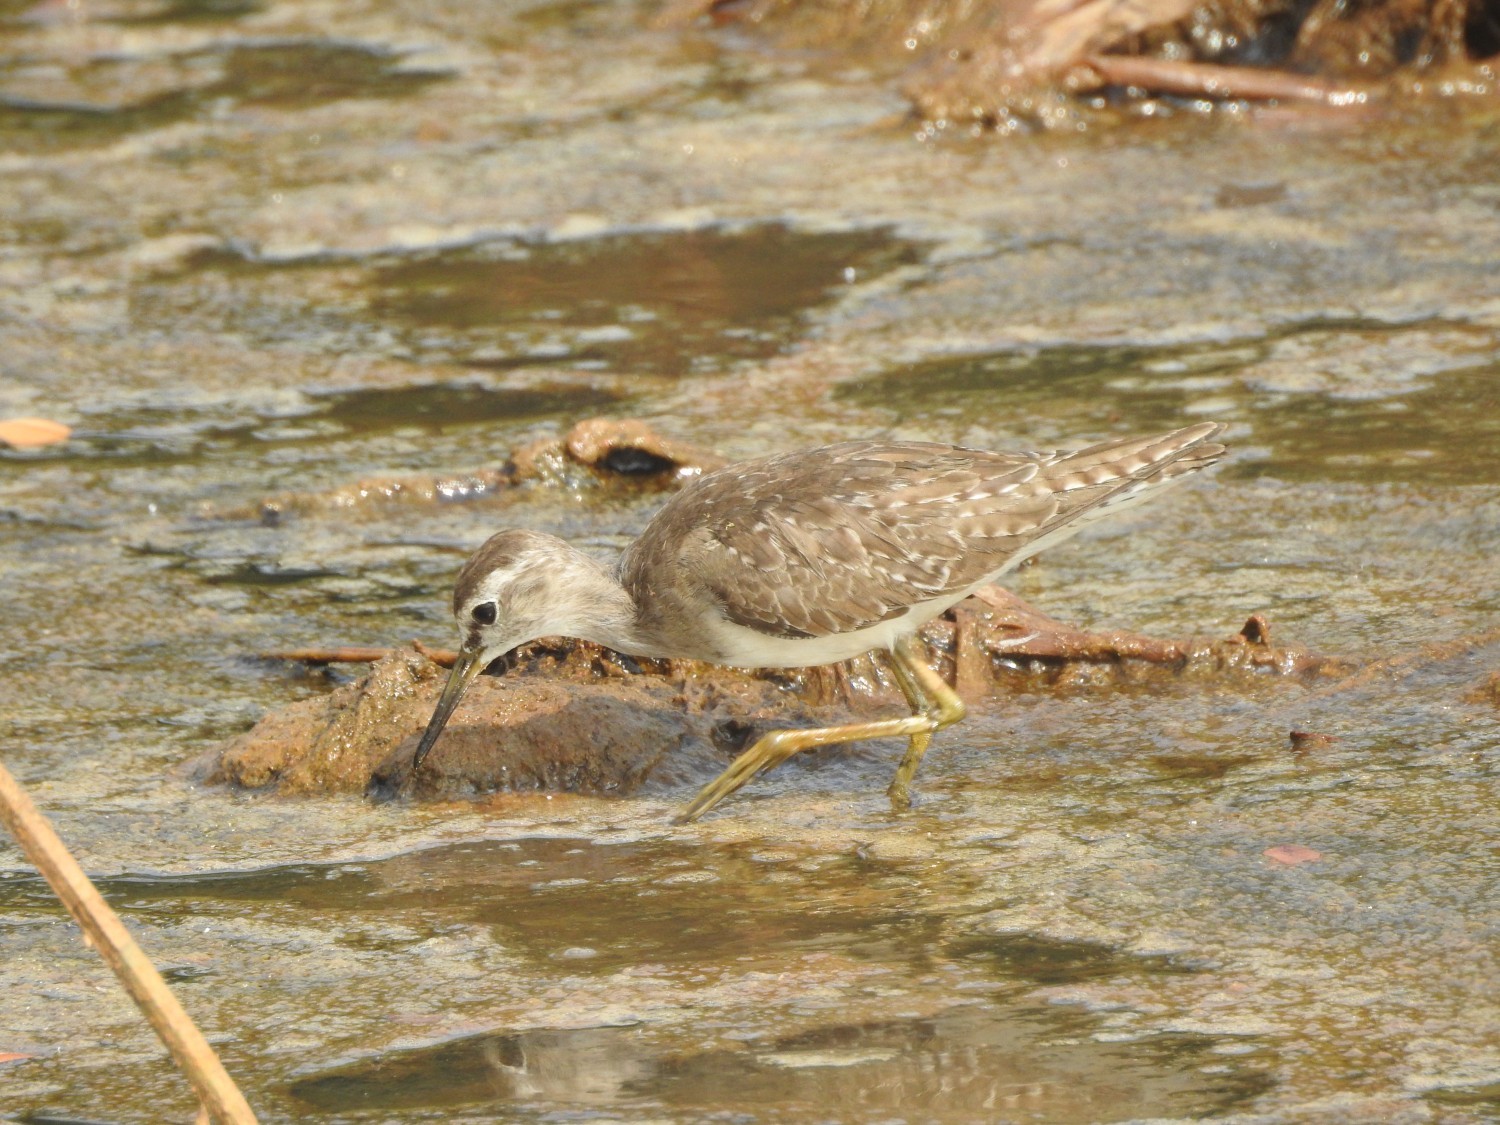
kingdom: Animalia
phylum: Chordata
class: Aves
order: Charadriiformes
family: Scolopacidae
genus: Tringa
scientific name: Tringa glareola
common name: Wood sandpiper
